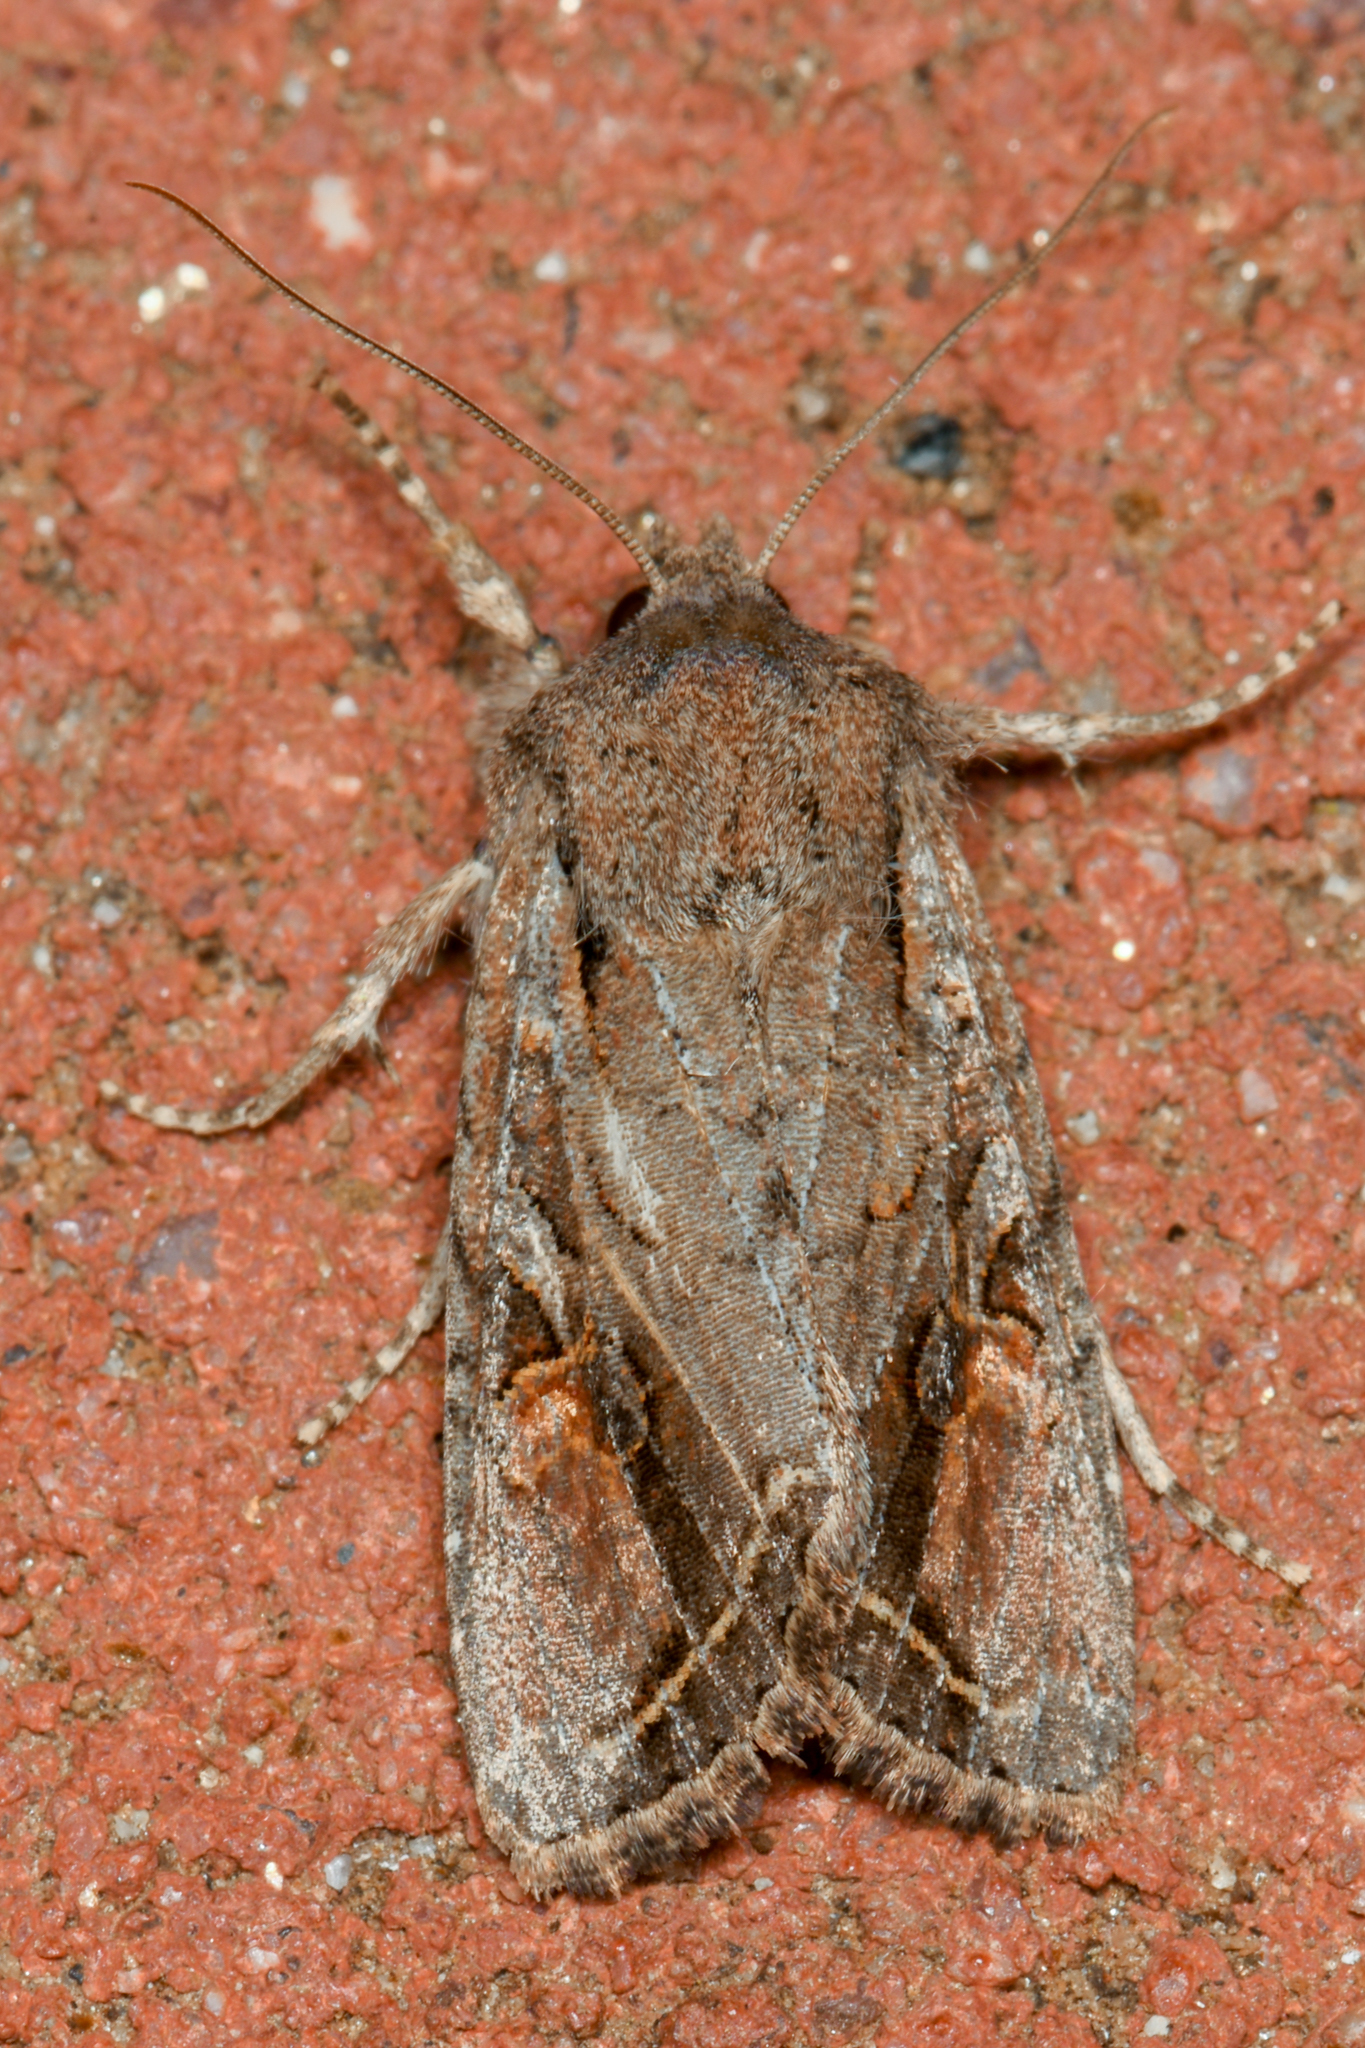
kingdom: Animalia
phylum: Arthropoda
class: Insecta
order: Lepidoptera
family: Noctuidae
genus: Egira
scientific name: Egira rubrica
